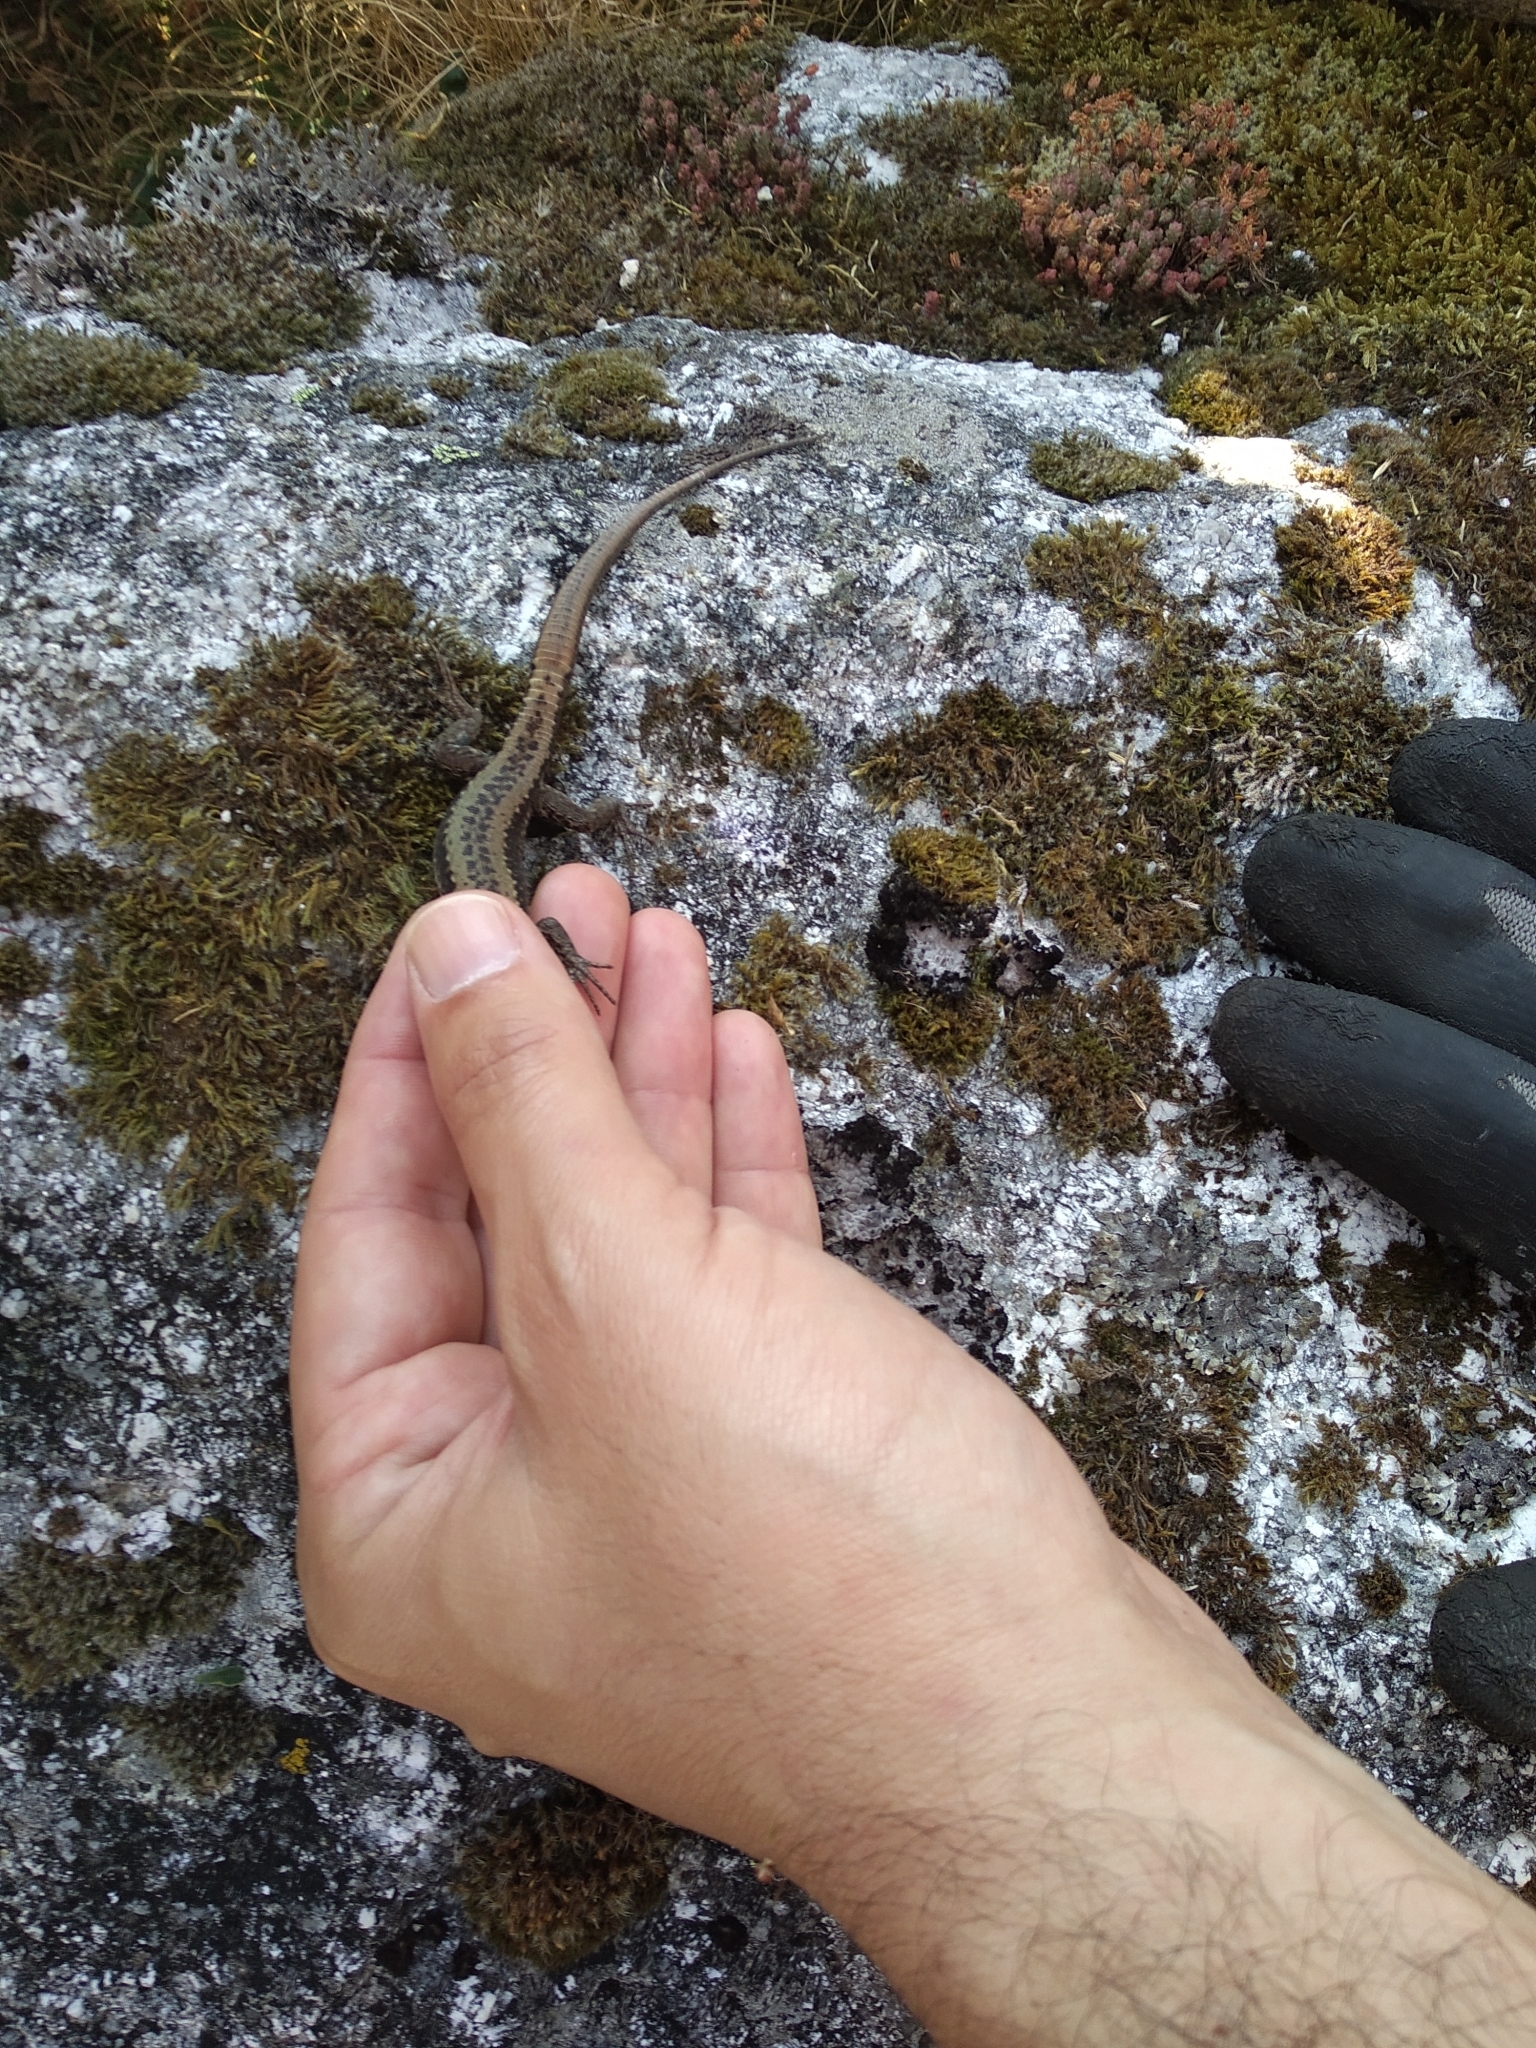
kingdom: Animalia
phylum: Chordata
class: Squamata
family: Lacertidae
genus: Iberolacerta
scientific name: Iberolacerta monticola
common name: Iberian mountain lizard
